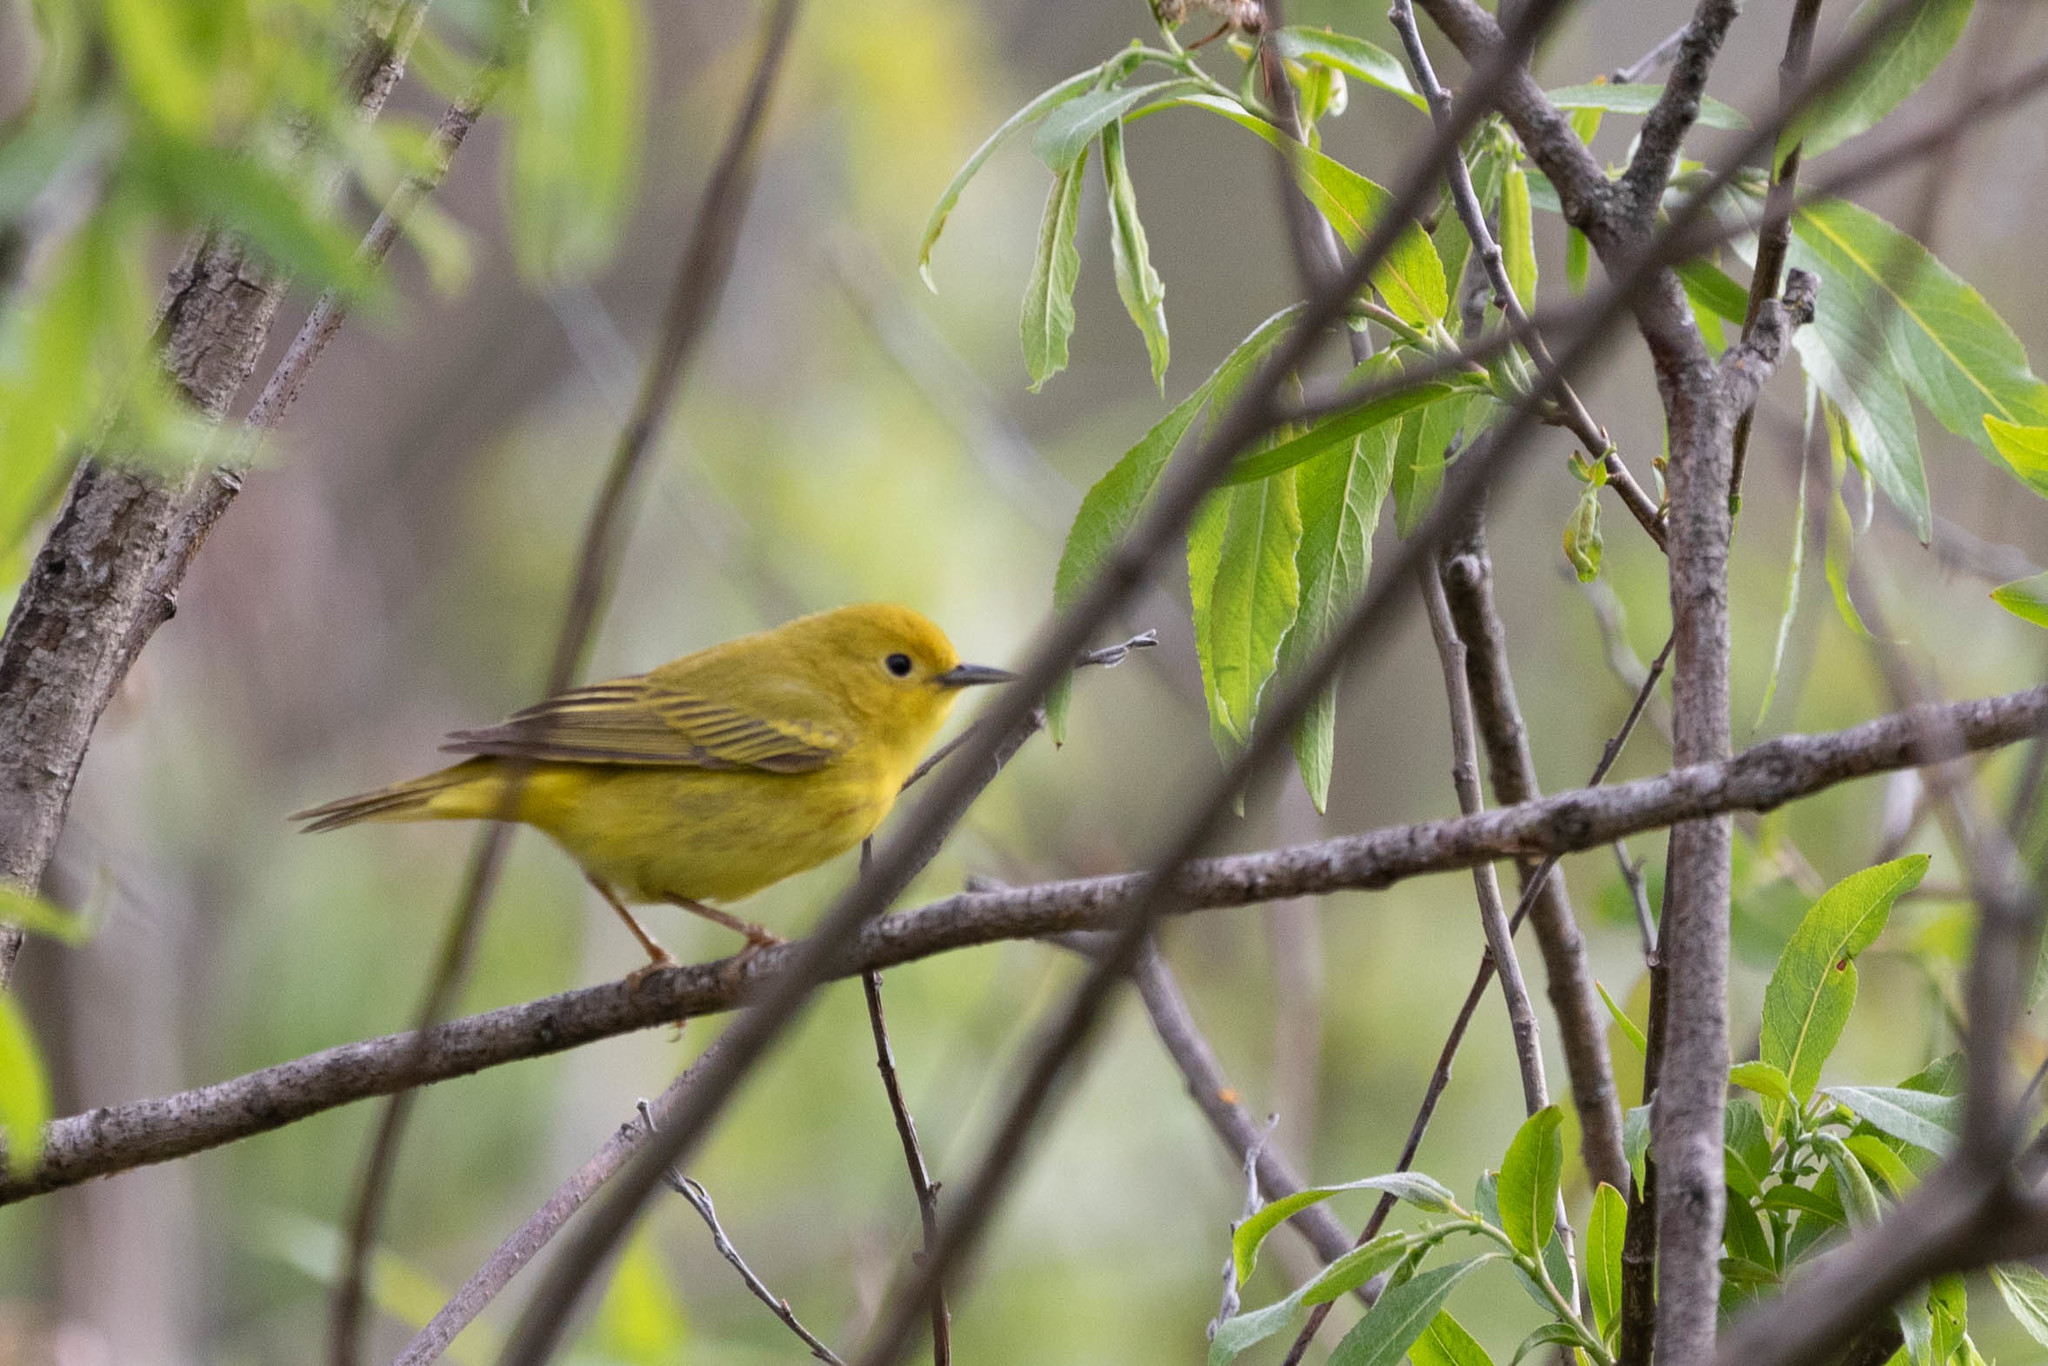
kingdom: Animalia
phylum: Chordata
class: Aves
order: Passeriformes
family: Parulidae
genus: Setophaga
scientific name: Setophaga petechia
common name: Yellow warbler
